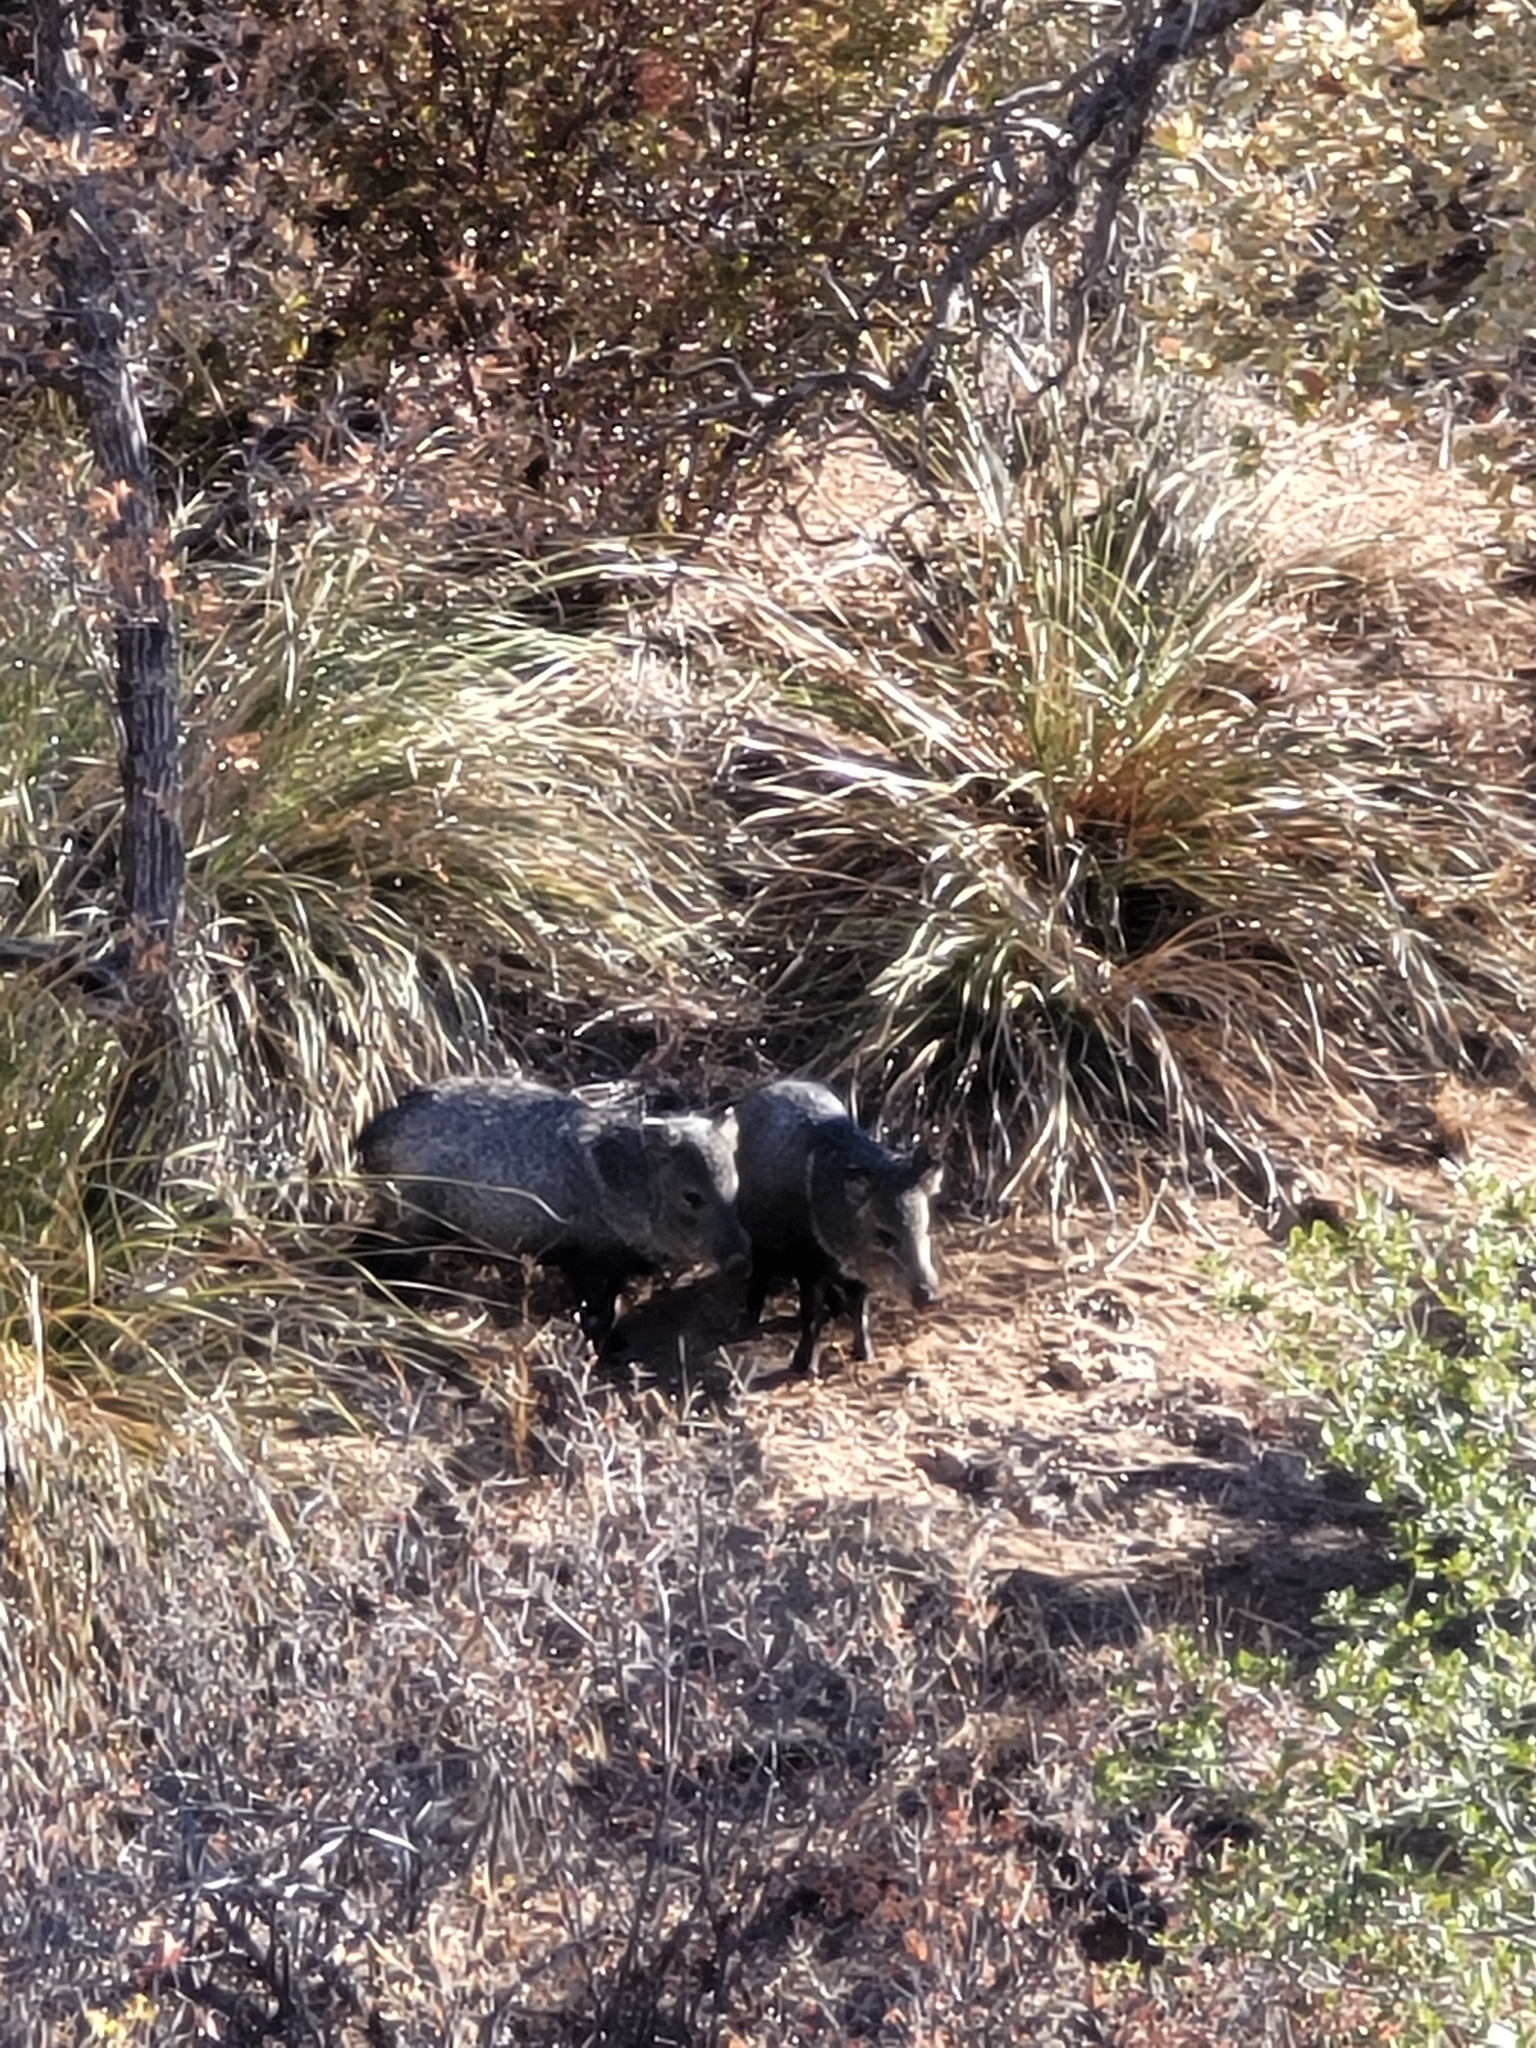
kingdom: Animalia
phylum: Chordata
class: Mammalia
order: Artiodactyla
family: Tayassuidae
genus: Pecari
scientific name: Pecari tajacu
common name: Collared peccary
